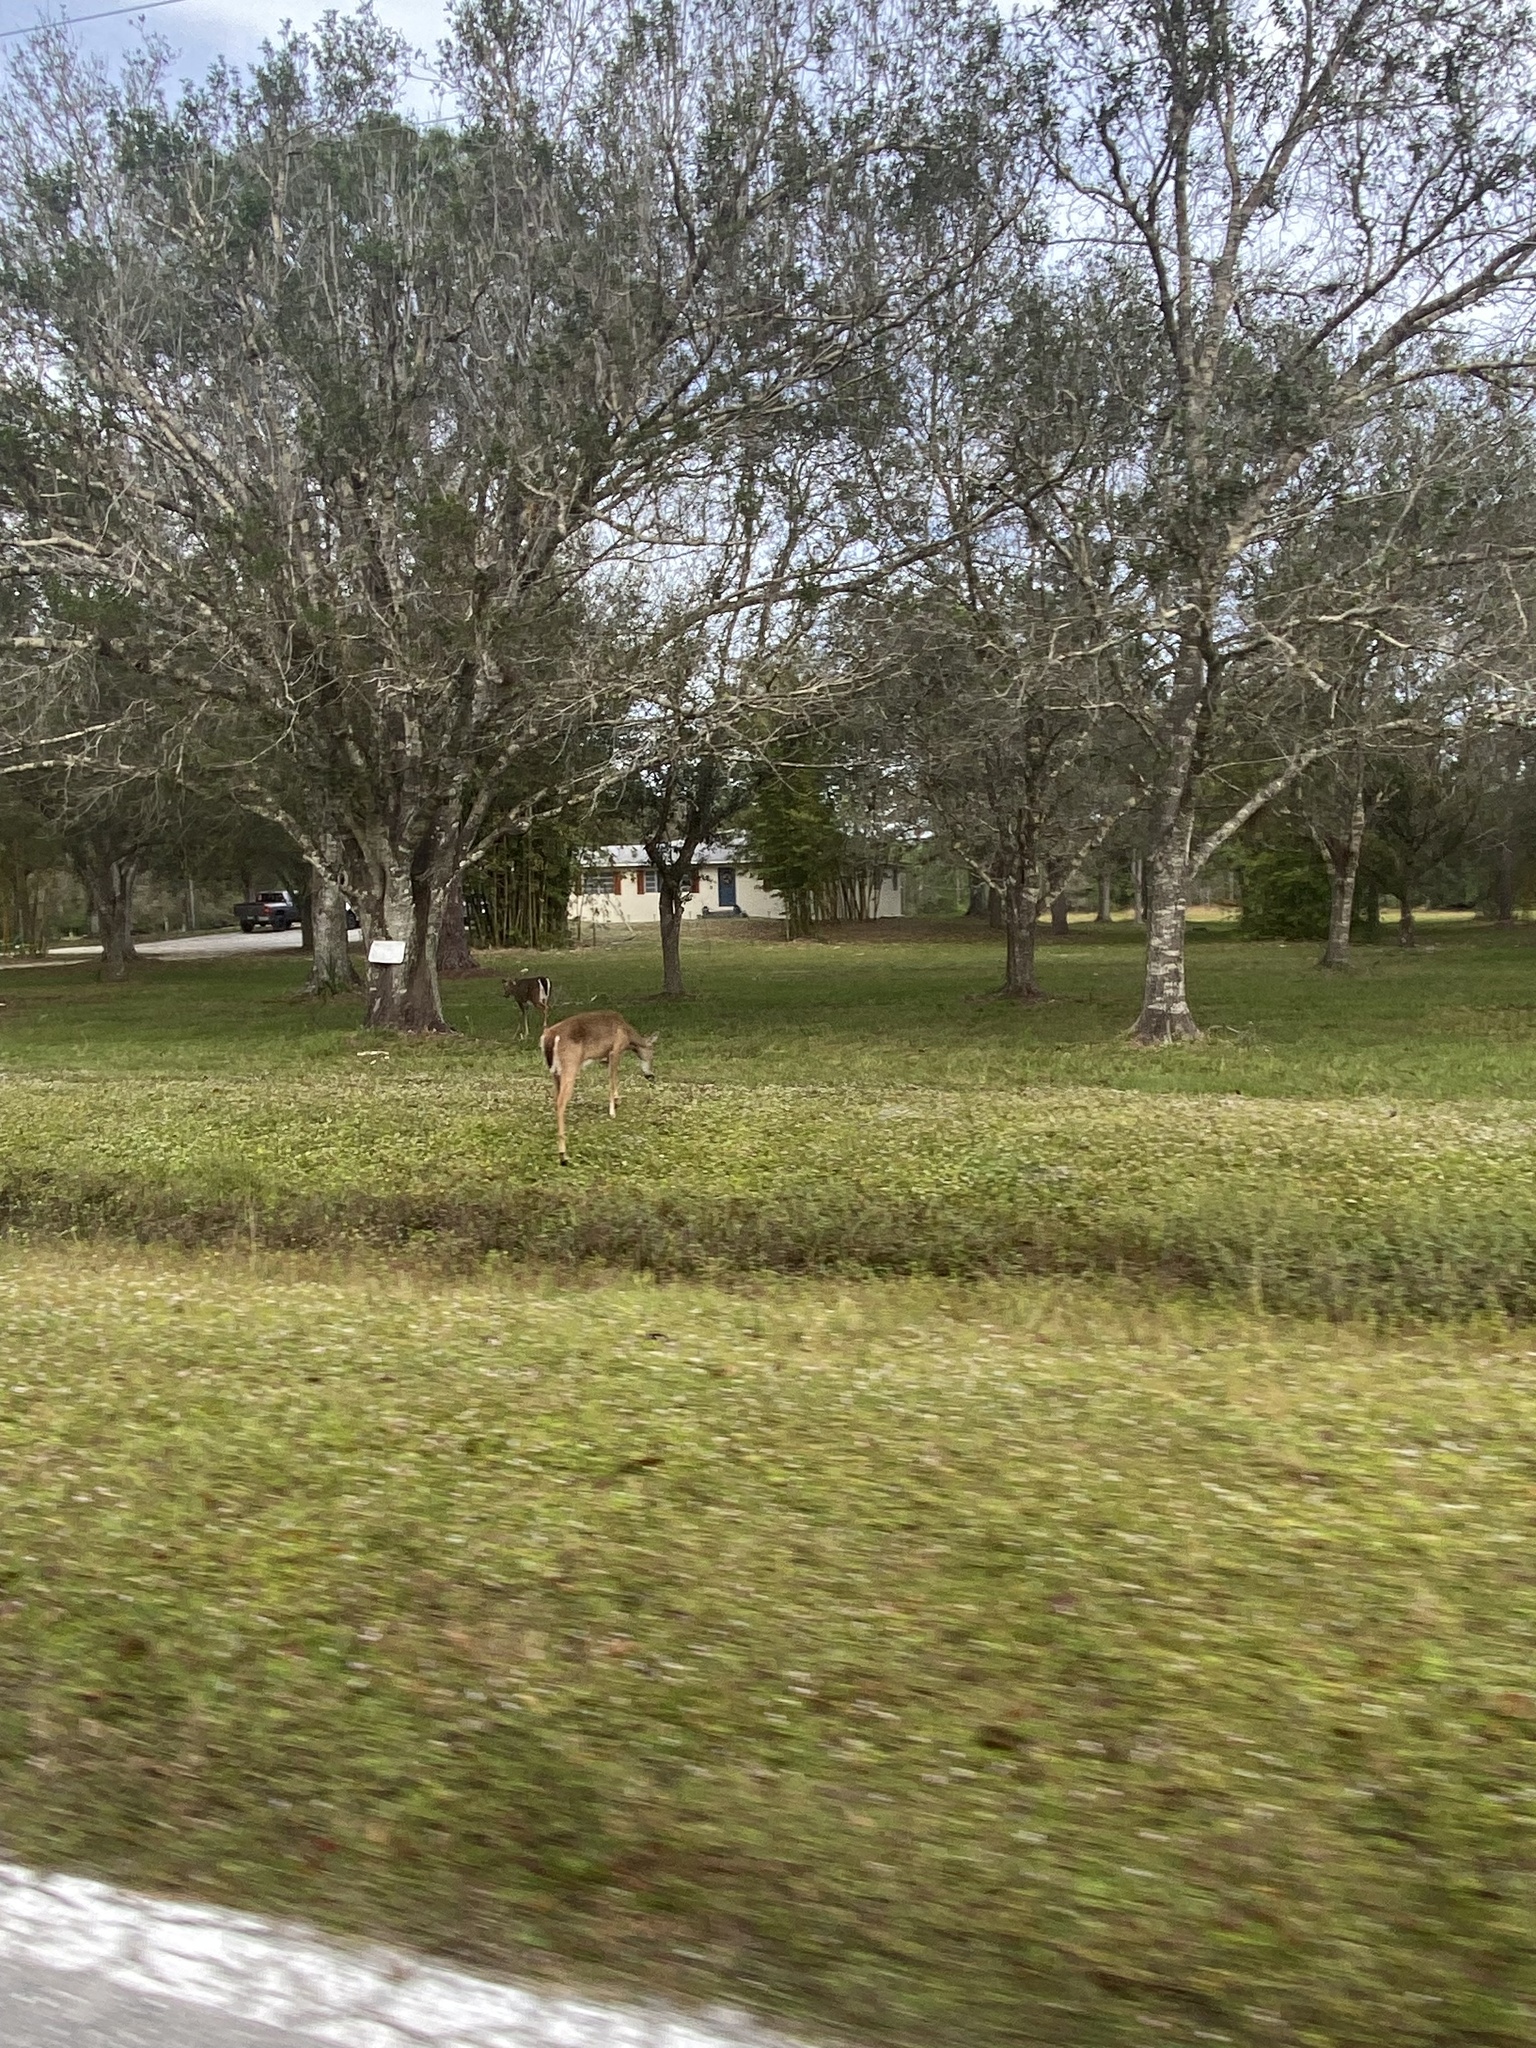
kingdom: Animalia
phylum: Chordata
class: Mammalia
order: Artiodactyla
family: Cervidae
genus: Odocoileus
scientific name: Odocoileus virginianus
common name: White-tailed deer
